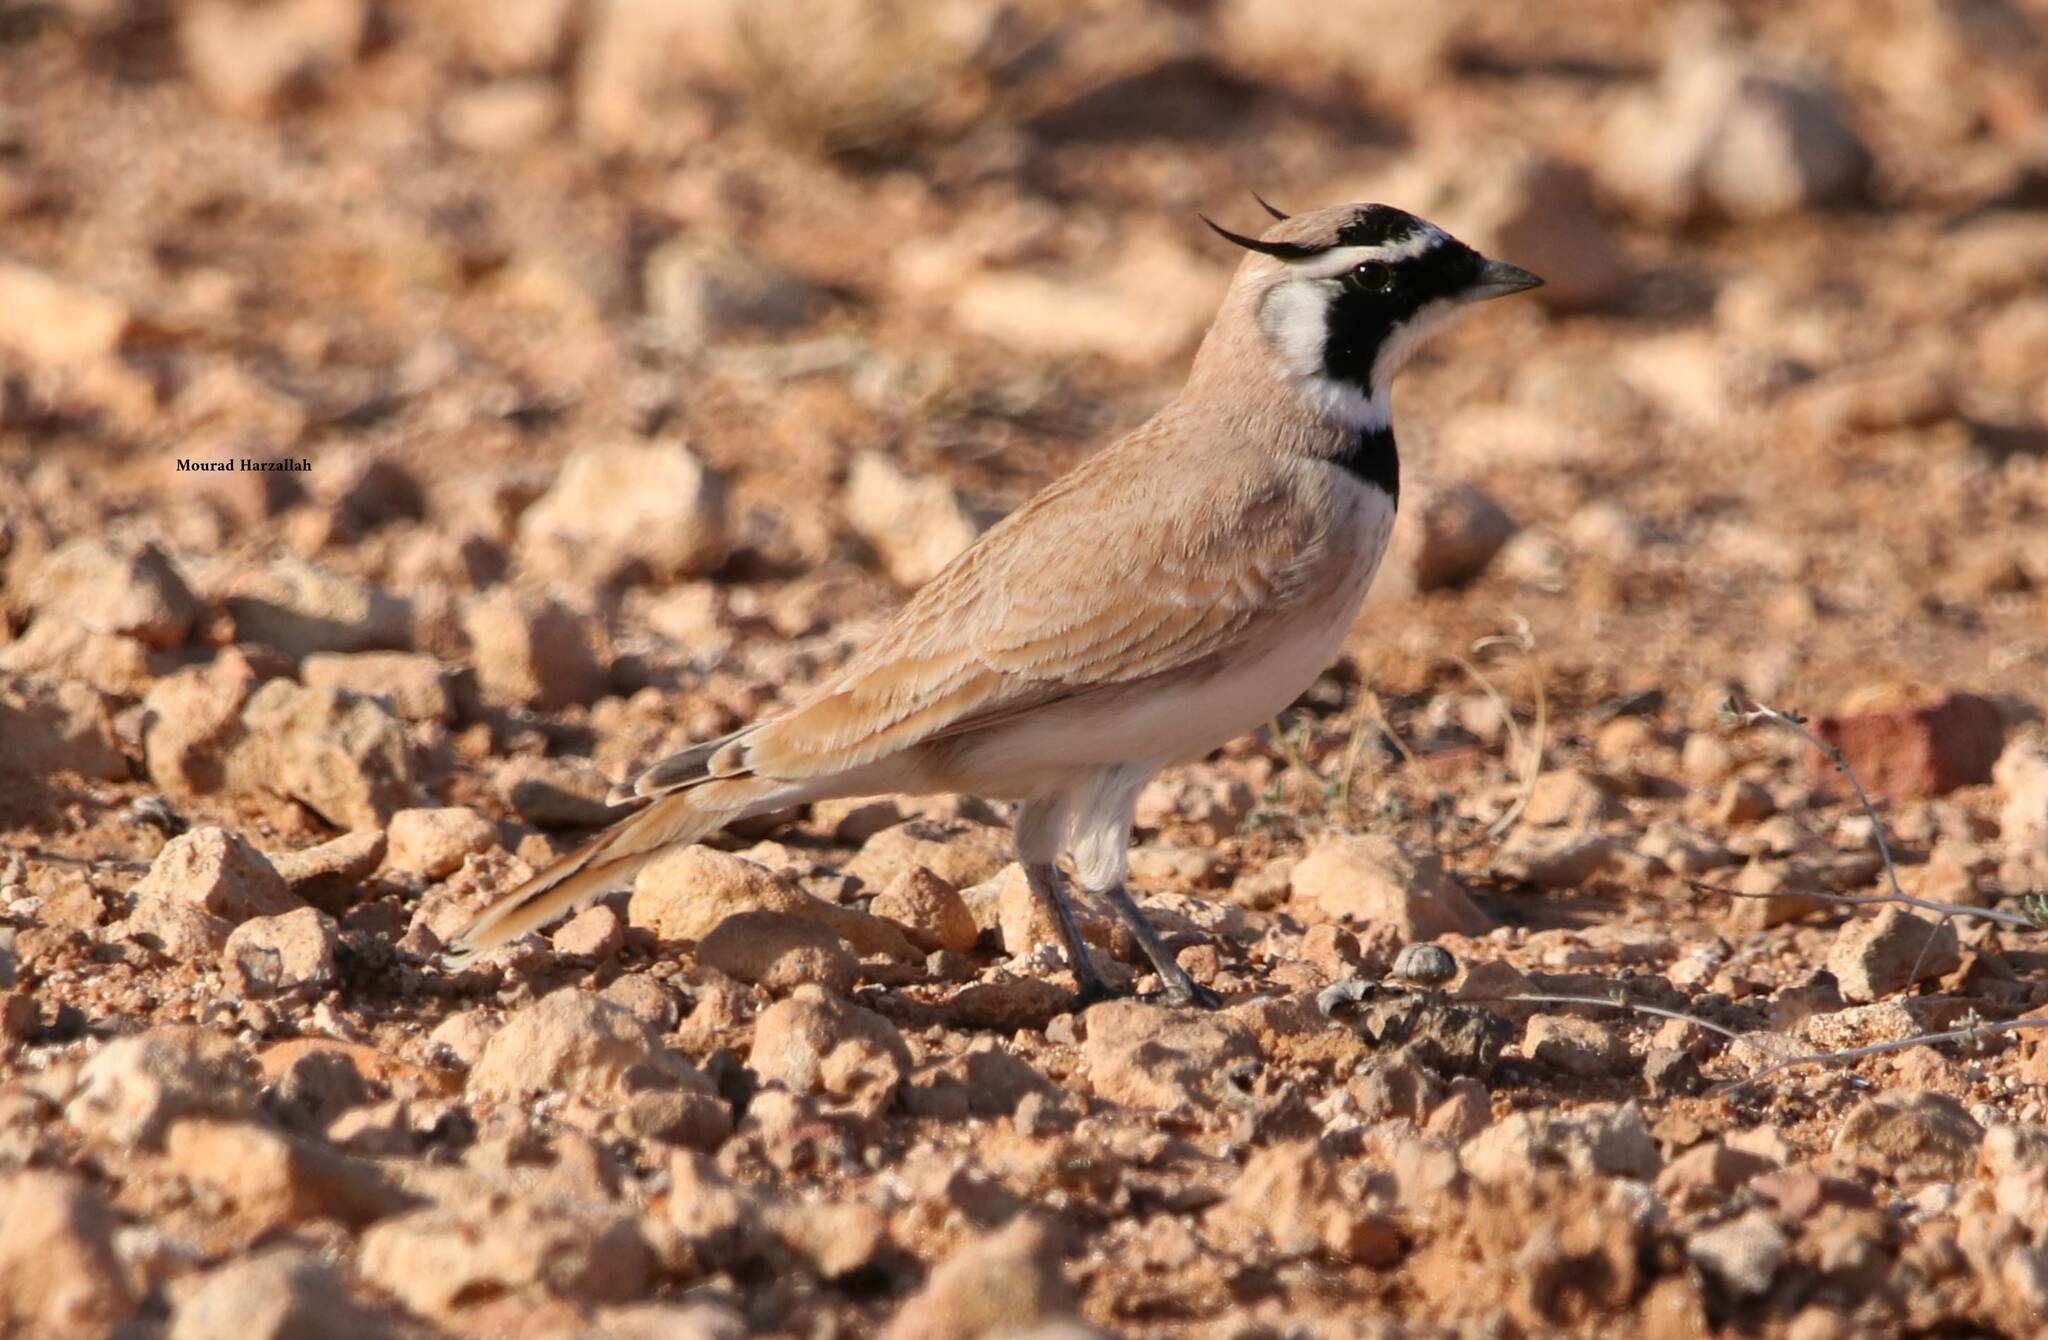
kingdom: Animalia
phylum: Chordata
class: Aves
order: Passeriformes
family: Alaudidae
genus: Eremophila
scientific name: Eremophila bilopha
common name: Temminck's lark
